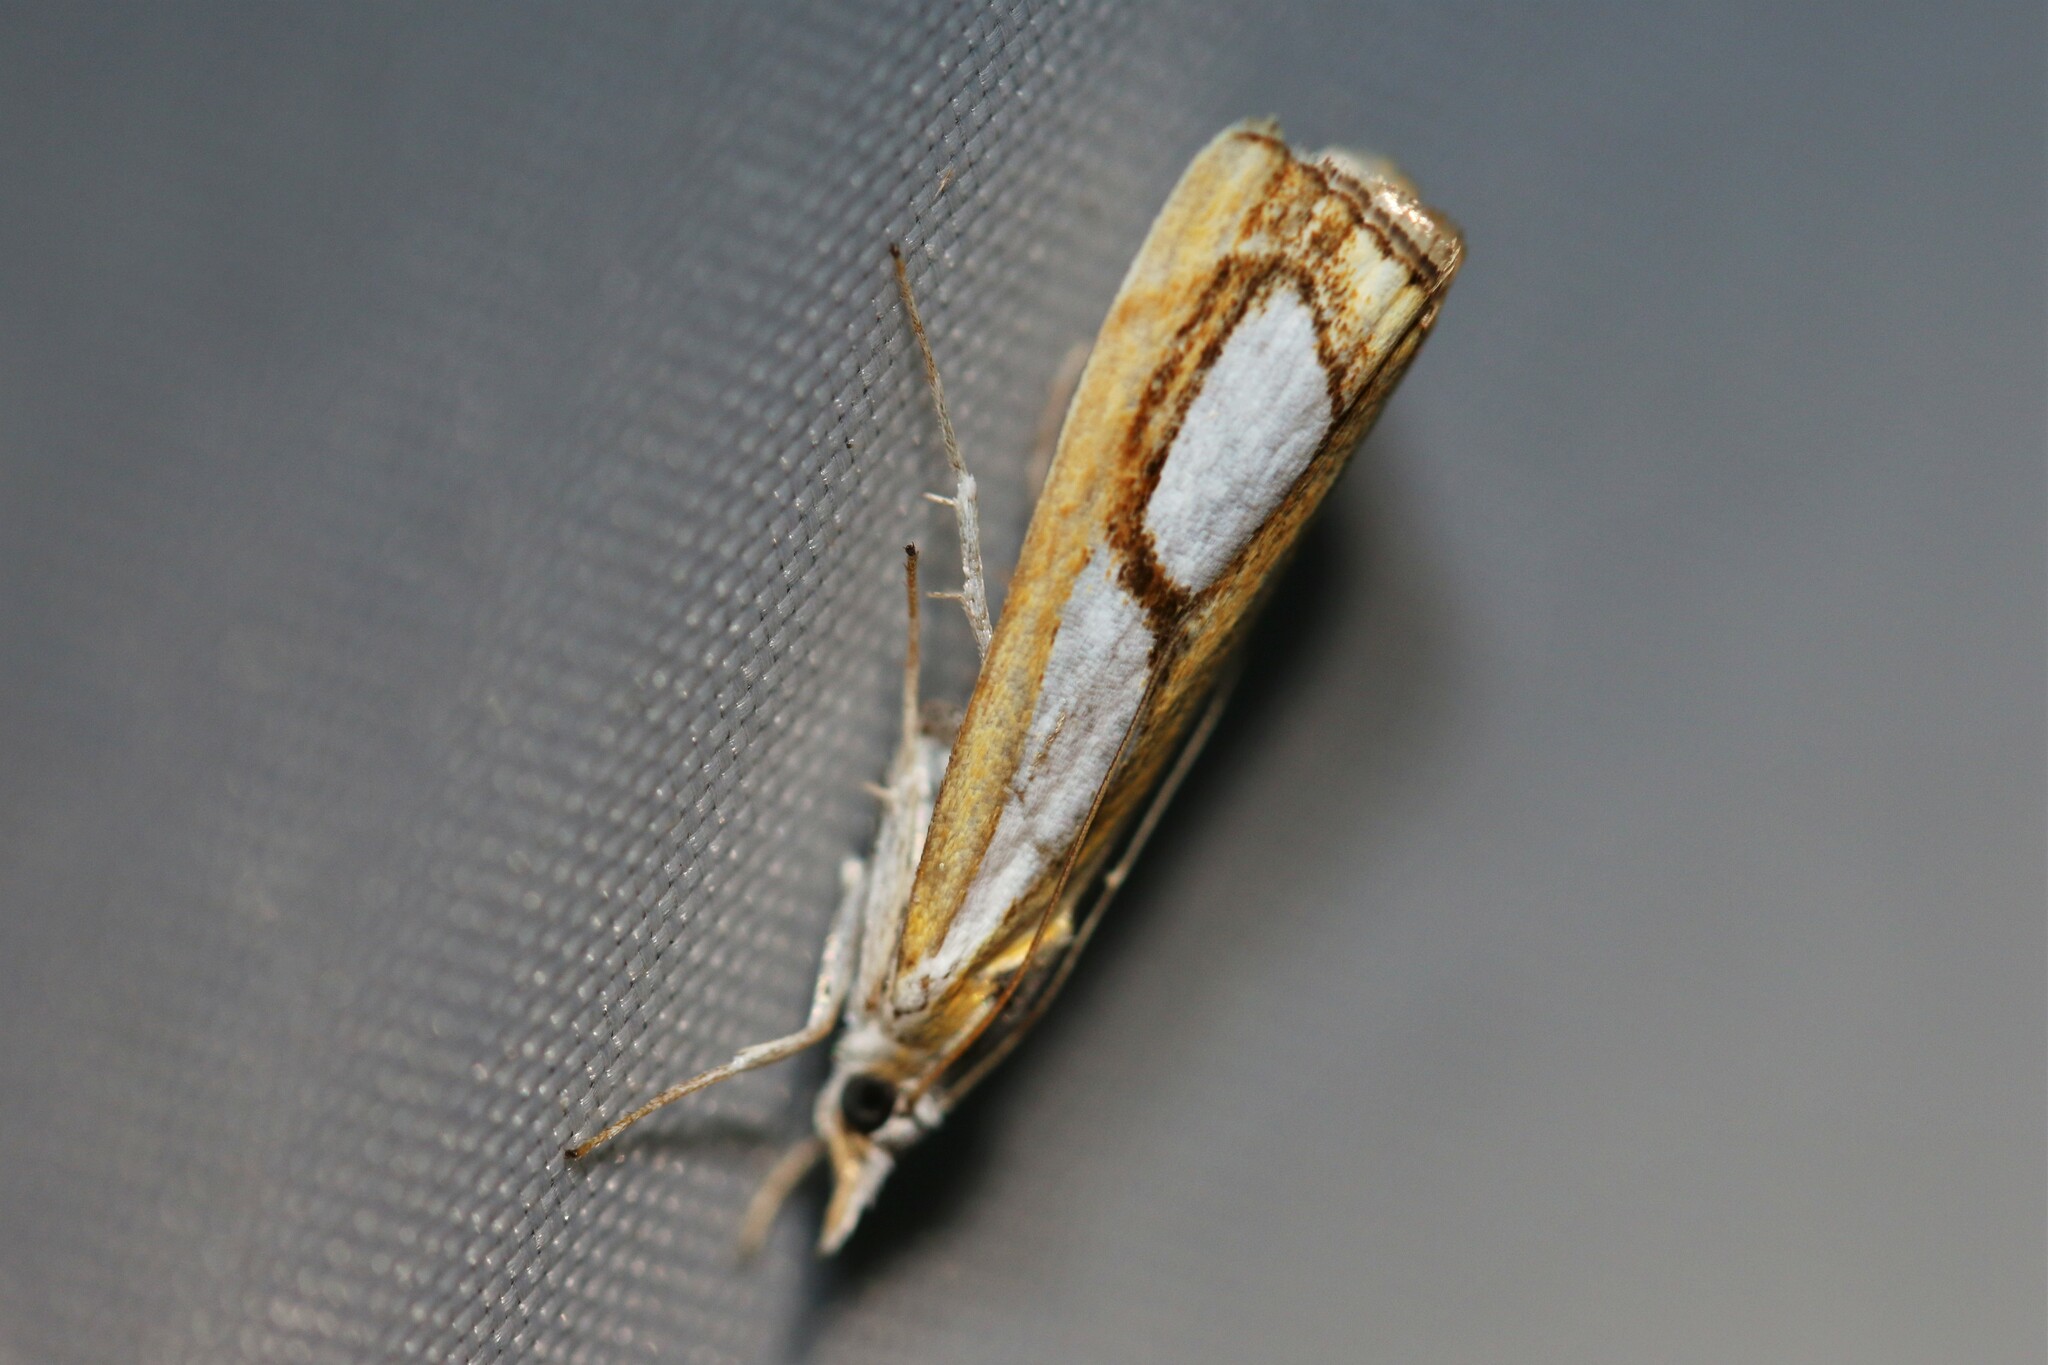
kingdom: Animalia
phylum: Arthropoda
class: Insecta
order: Lepidoptera
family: Crambidae
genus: Catoptria
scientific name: Catoptria pinella
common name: Pearl grass-veneer
